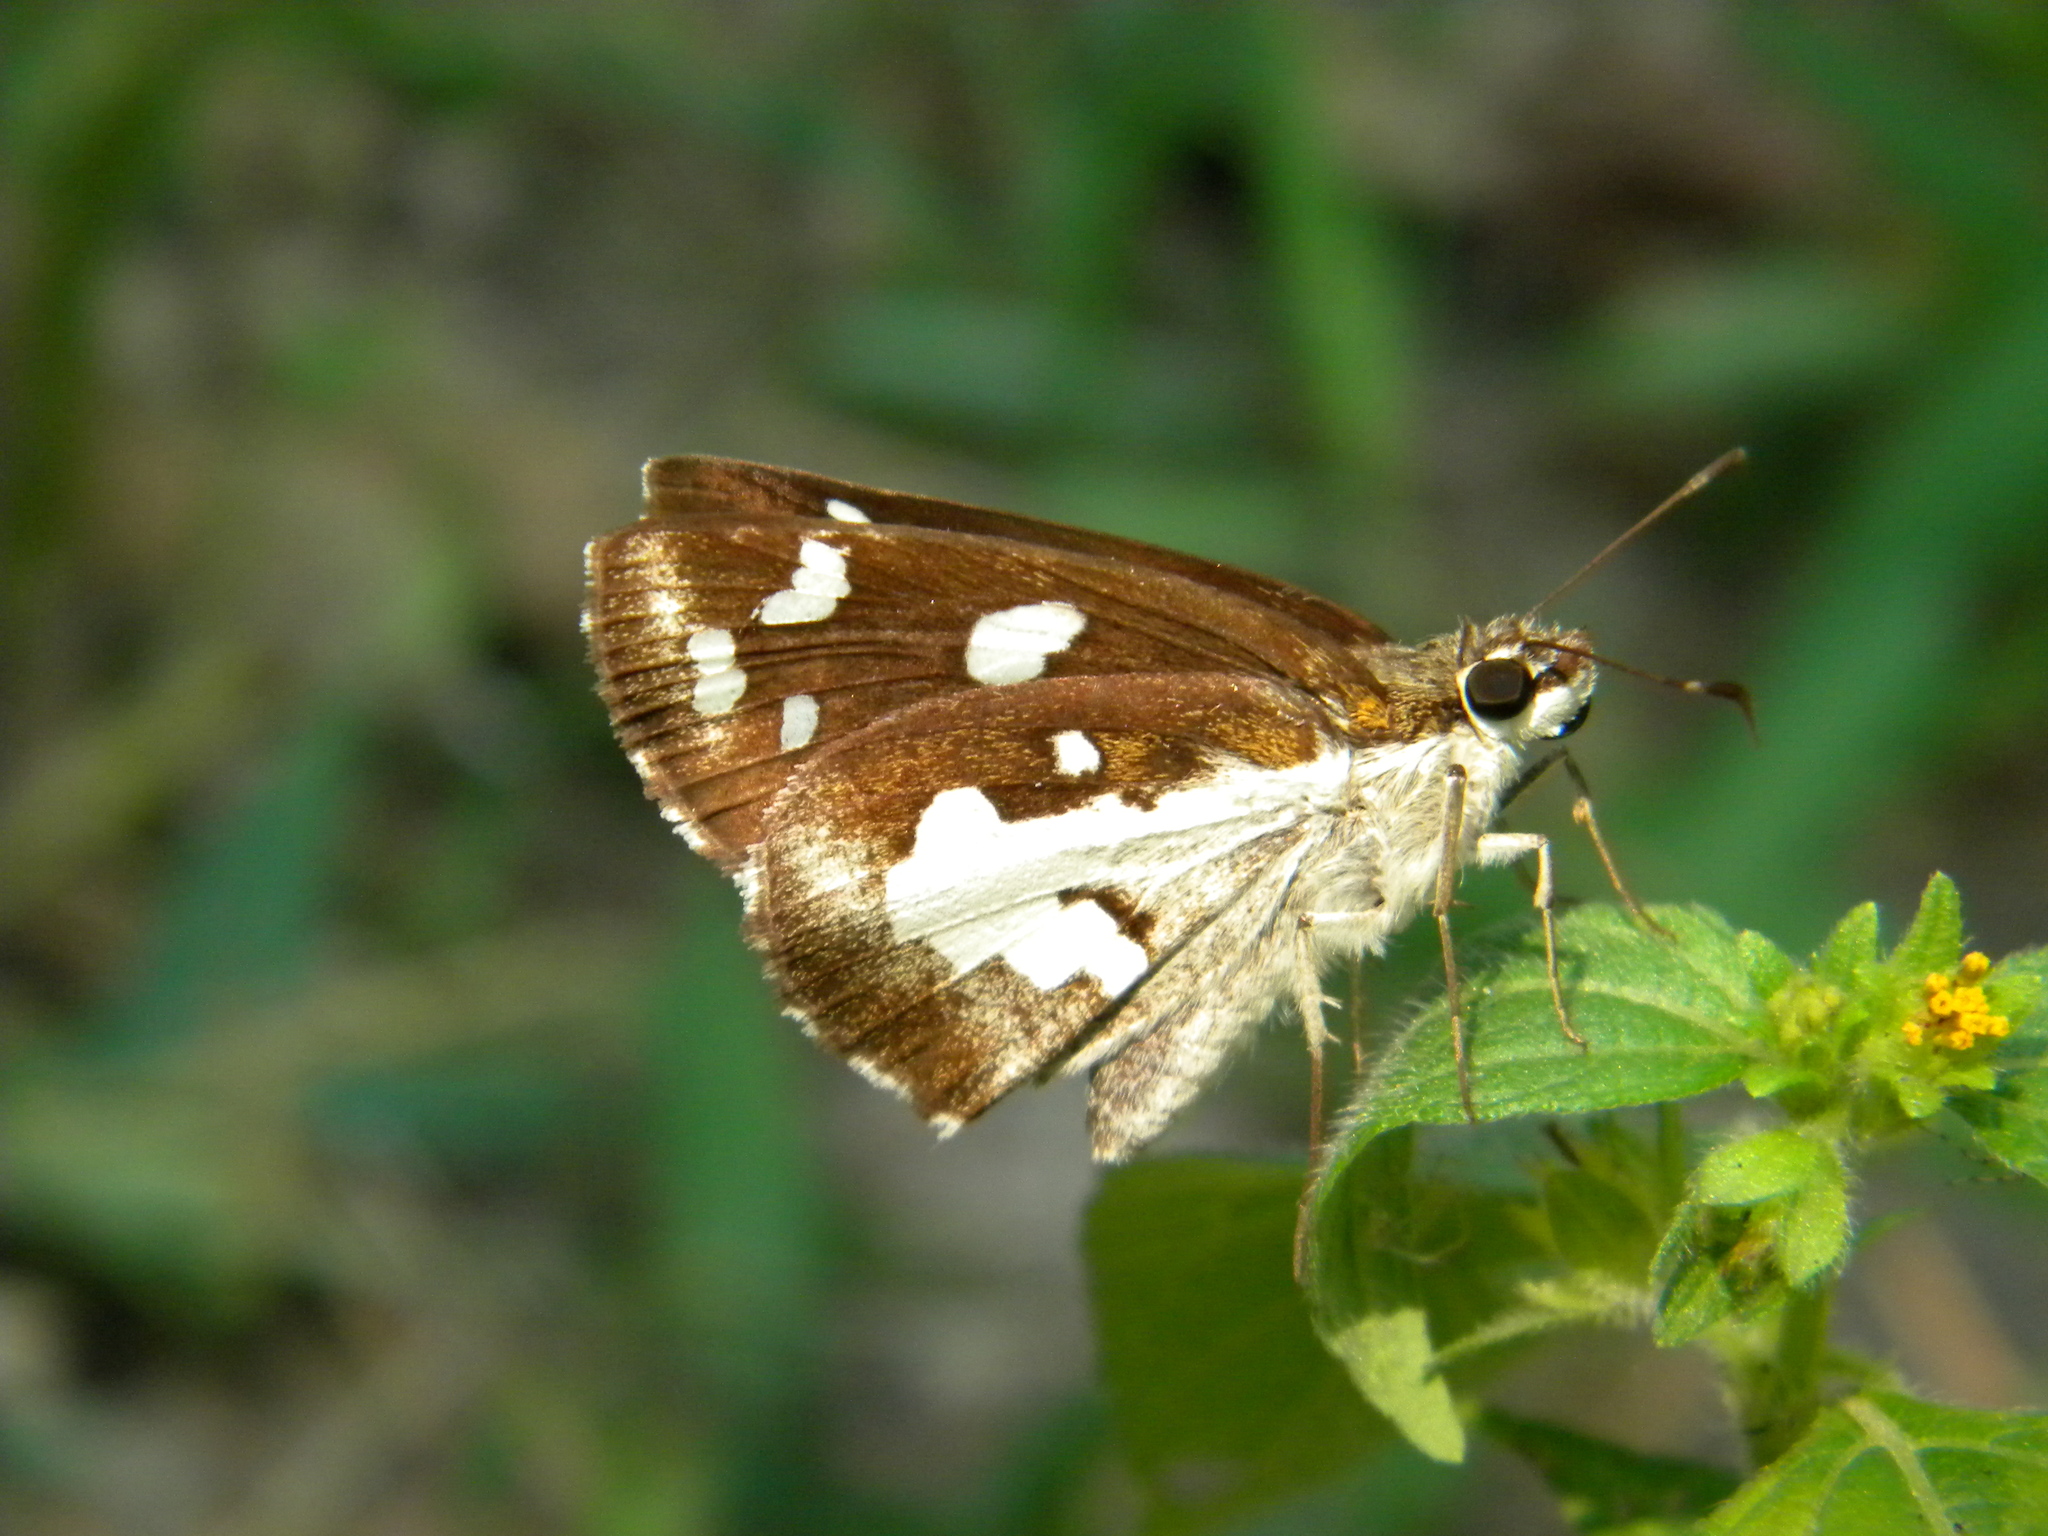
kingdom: Animalia
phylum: Arthropoda
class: Insecta
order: Lepidoptera
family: Hesperiidae
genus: Udaspes
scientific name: Udaspes folus
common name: Grass demon
